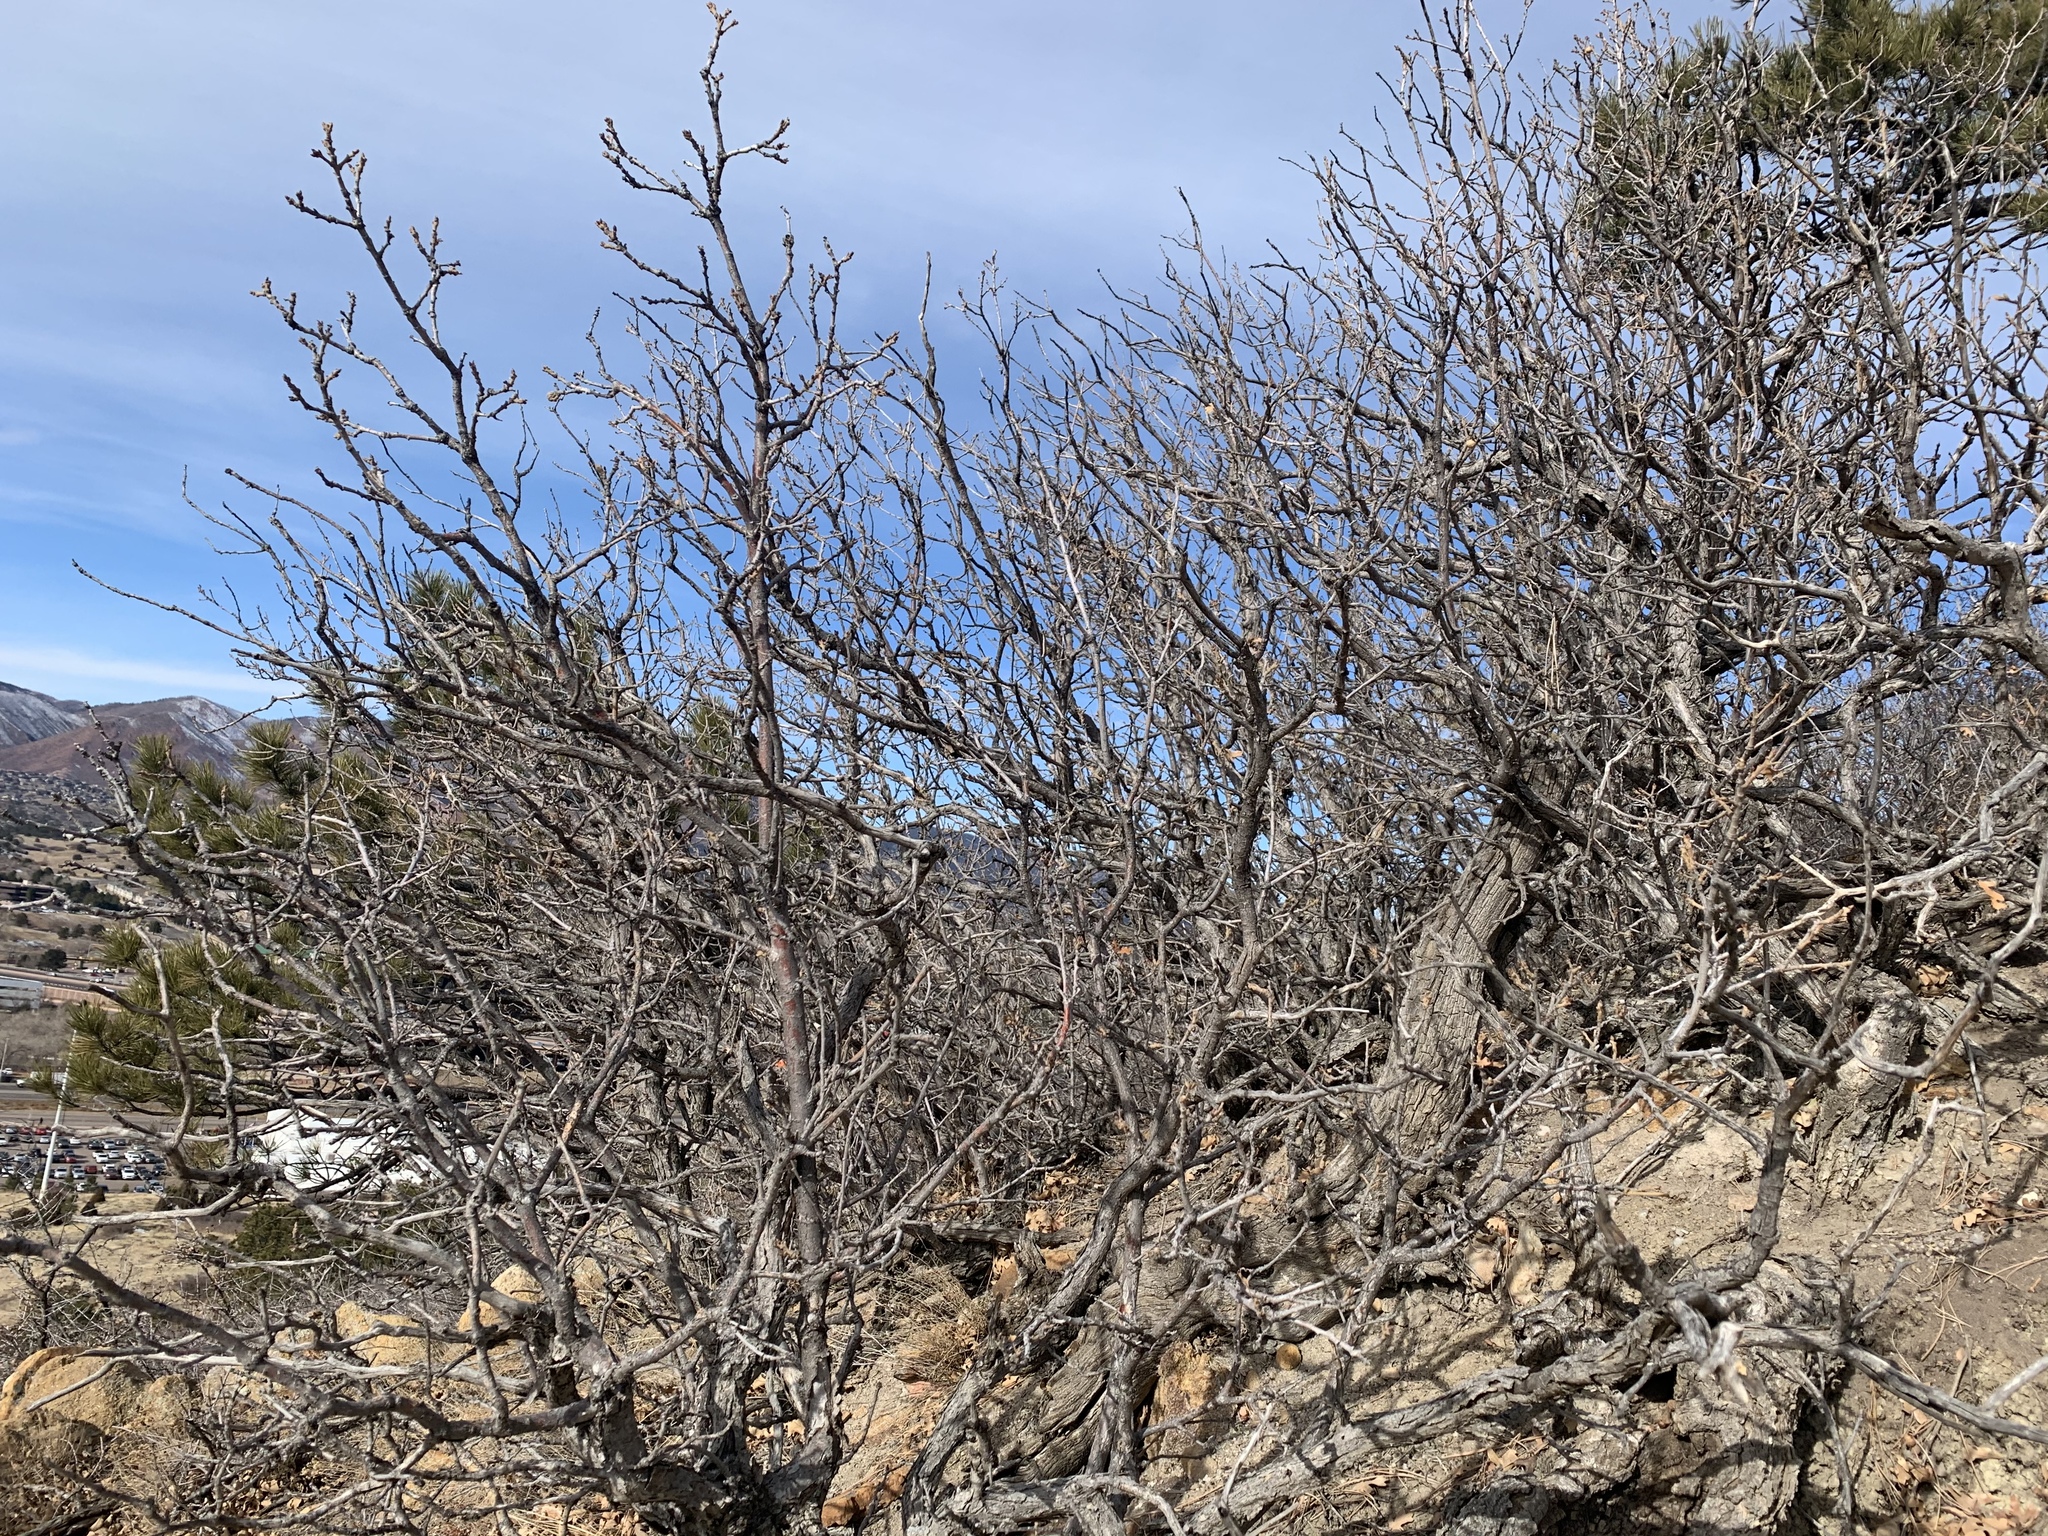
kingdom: Plantae
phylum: Tracheophyta
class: Magnoliopsida
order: Fagales
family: Fagaceae
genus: Quercus
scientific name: Quercus gambelii
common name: Gambel oak
